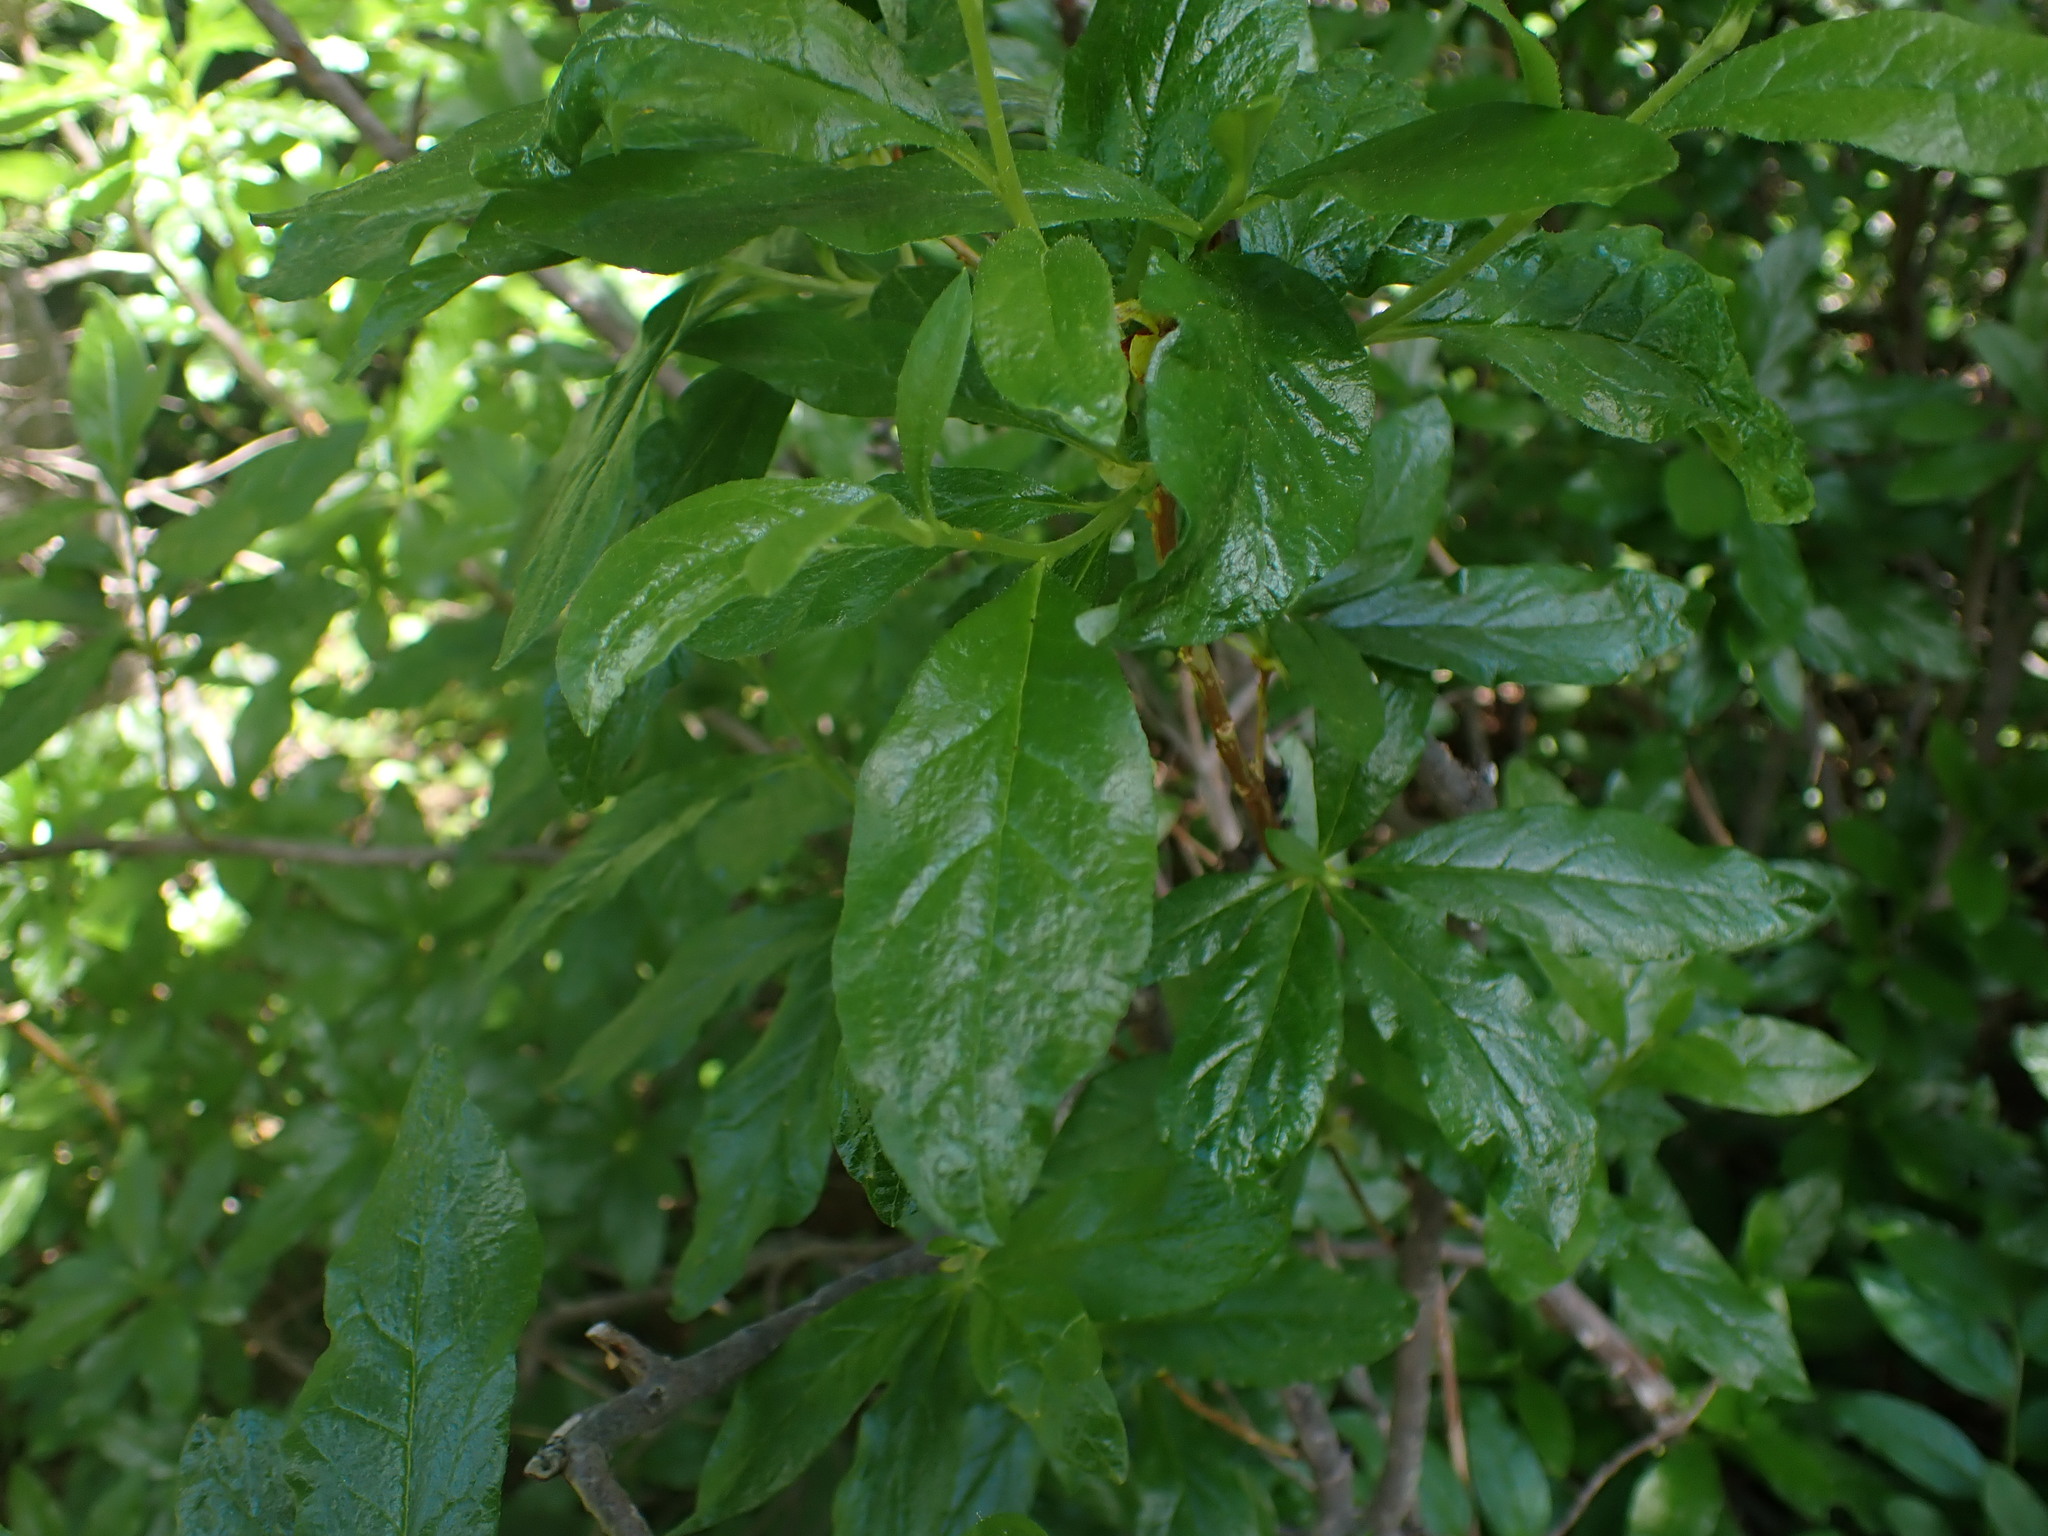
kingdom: Plantae
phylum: Tracheophyta
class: Magnoliopsida
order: Ericales
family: Ericaceae
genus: Rhododendron
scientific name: Rhododendron albiflorum
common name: White rhododendron
